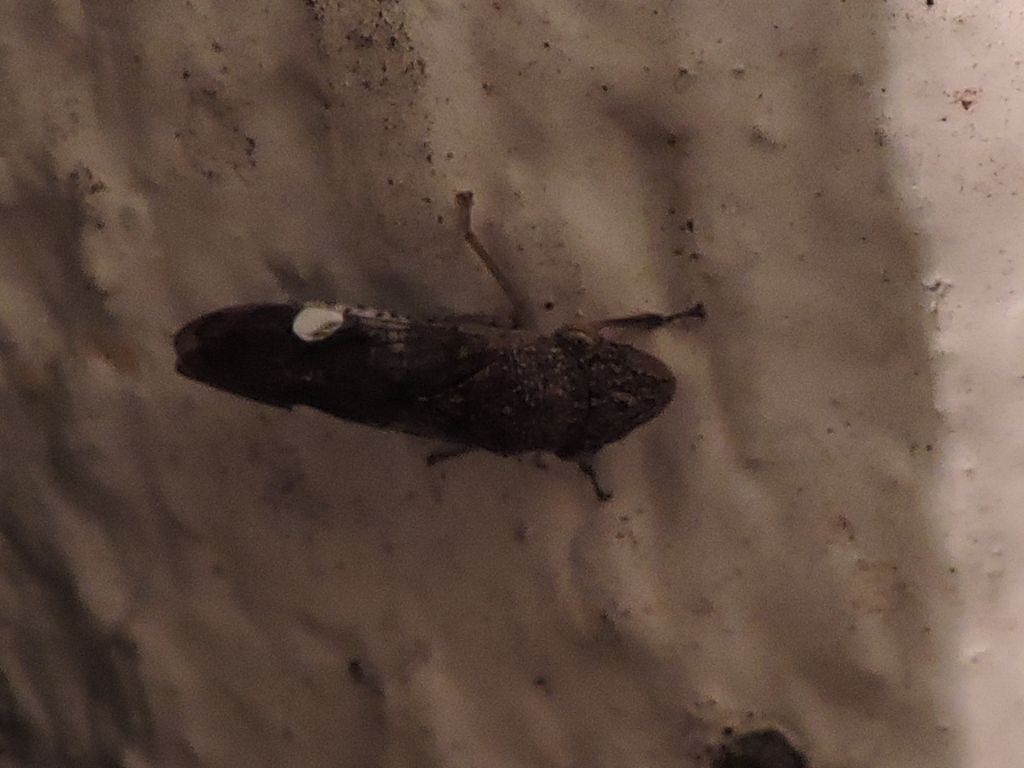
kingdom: Animalia
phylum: Arthropoda
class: Insecta
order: Hemiptera
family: Cicadellidae
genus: Homalodisca
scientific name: Homalodisca vitripennis
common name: Glassy-winged sharpshooter
